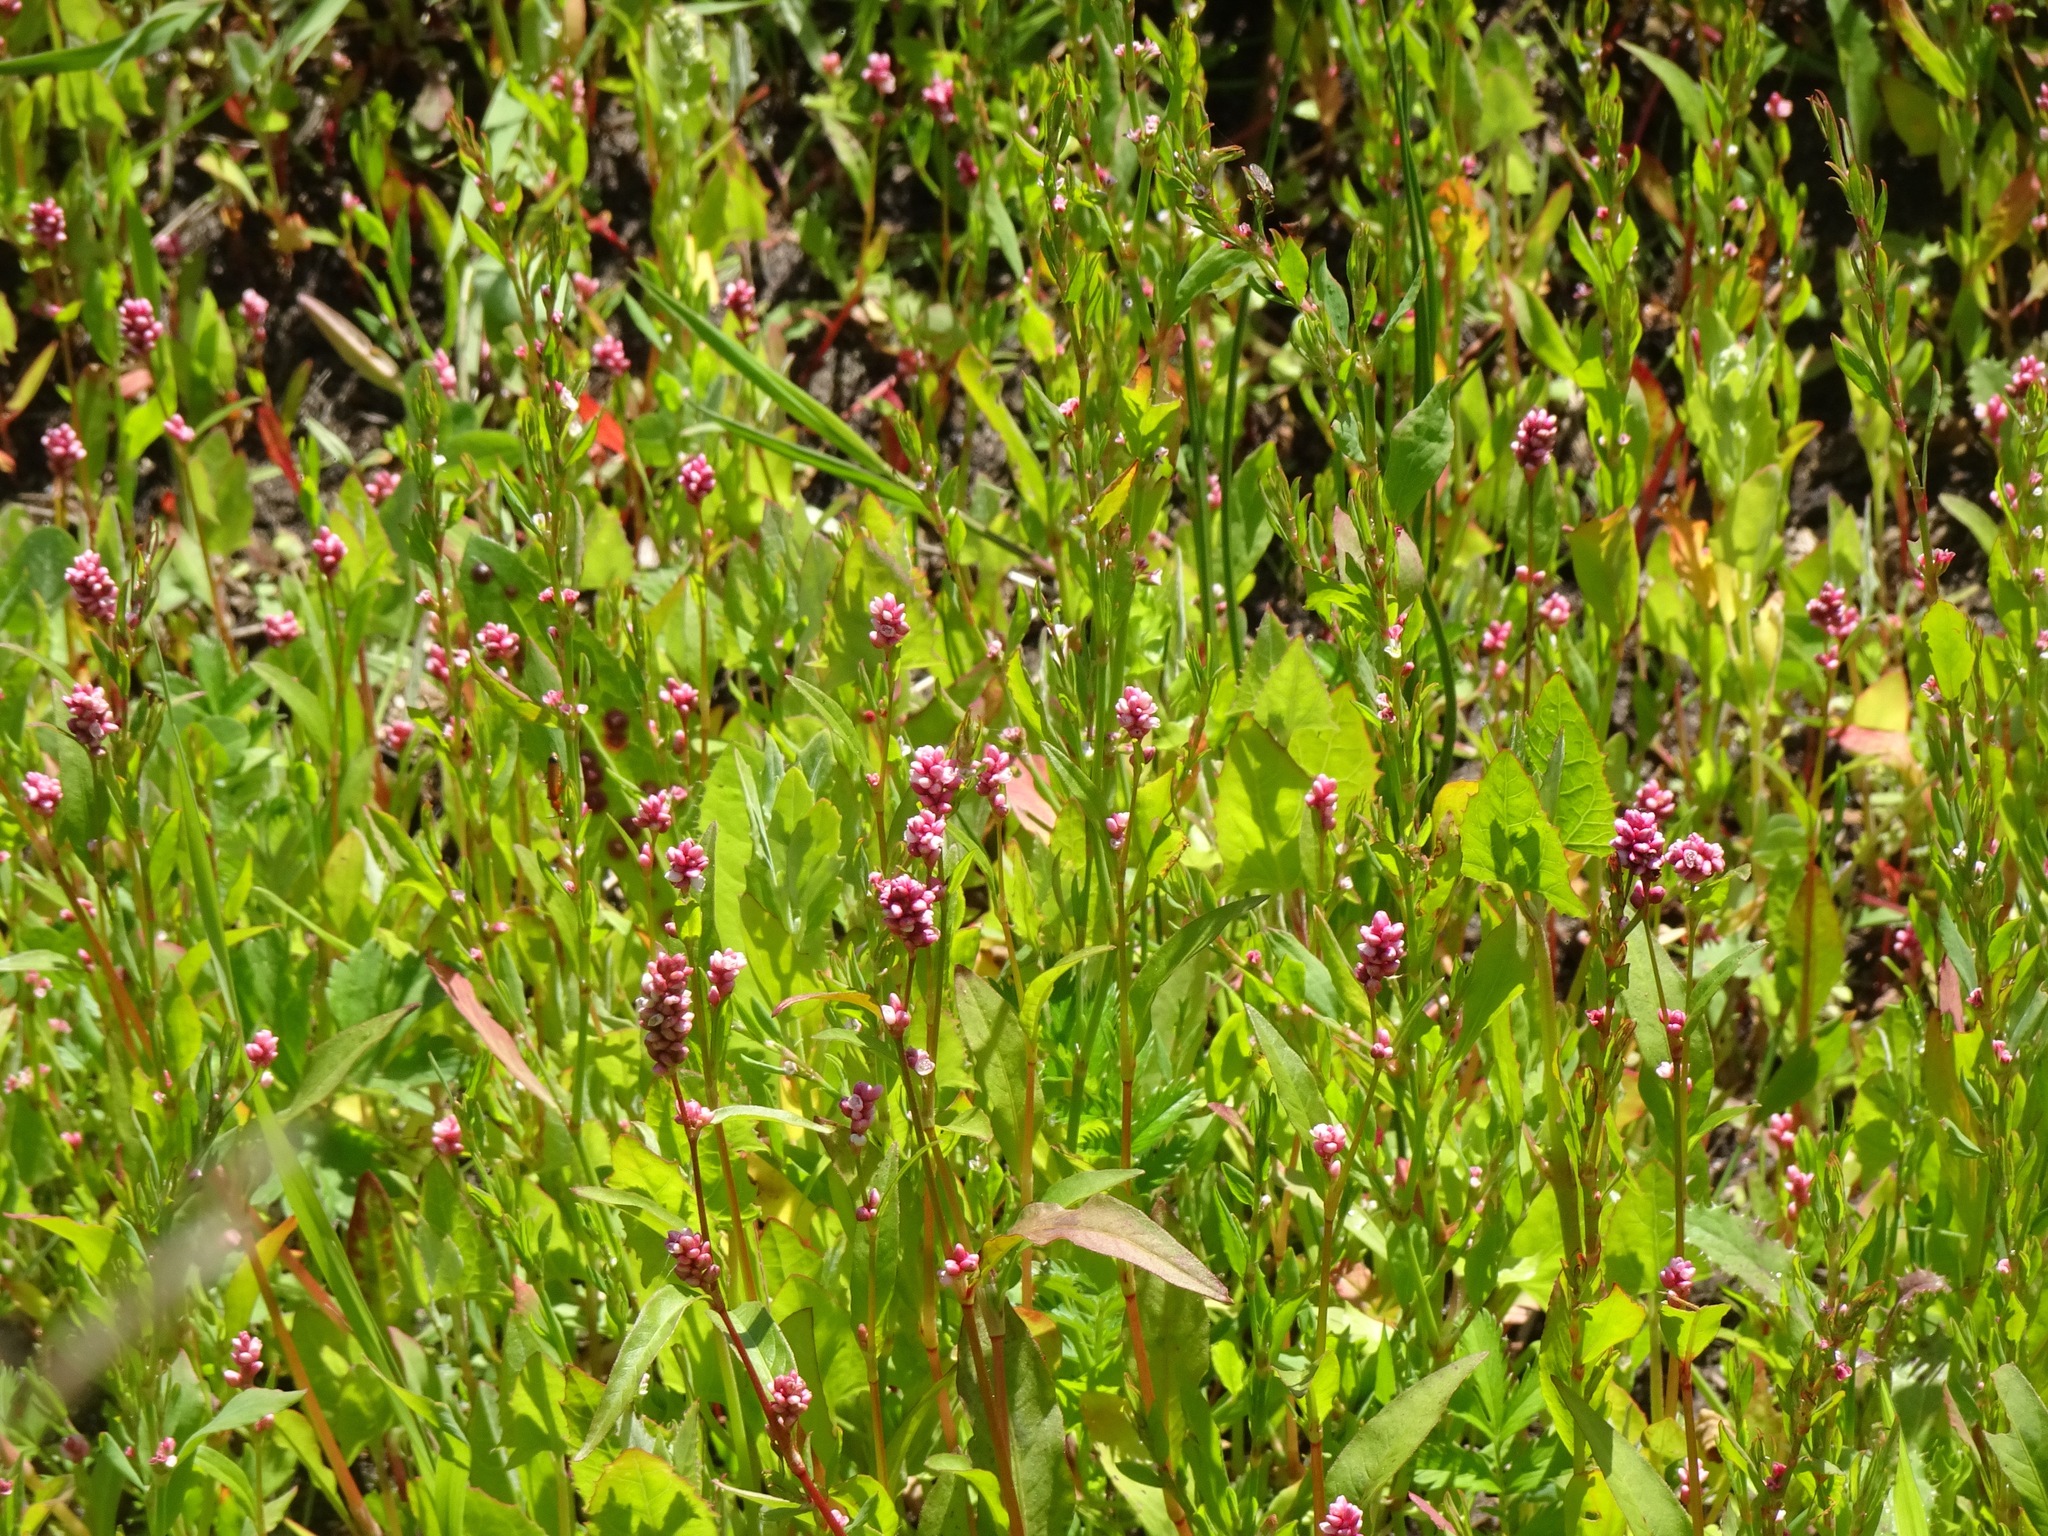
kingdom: Plantae
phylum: Tracheophyta
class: Magnoliopsida
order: Caryophyllales
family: Polygonaceae
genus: Persicaria
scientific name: Persicaria maculosa
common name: Redshank
